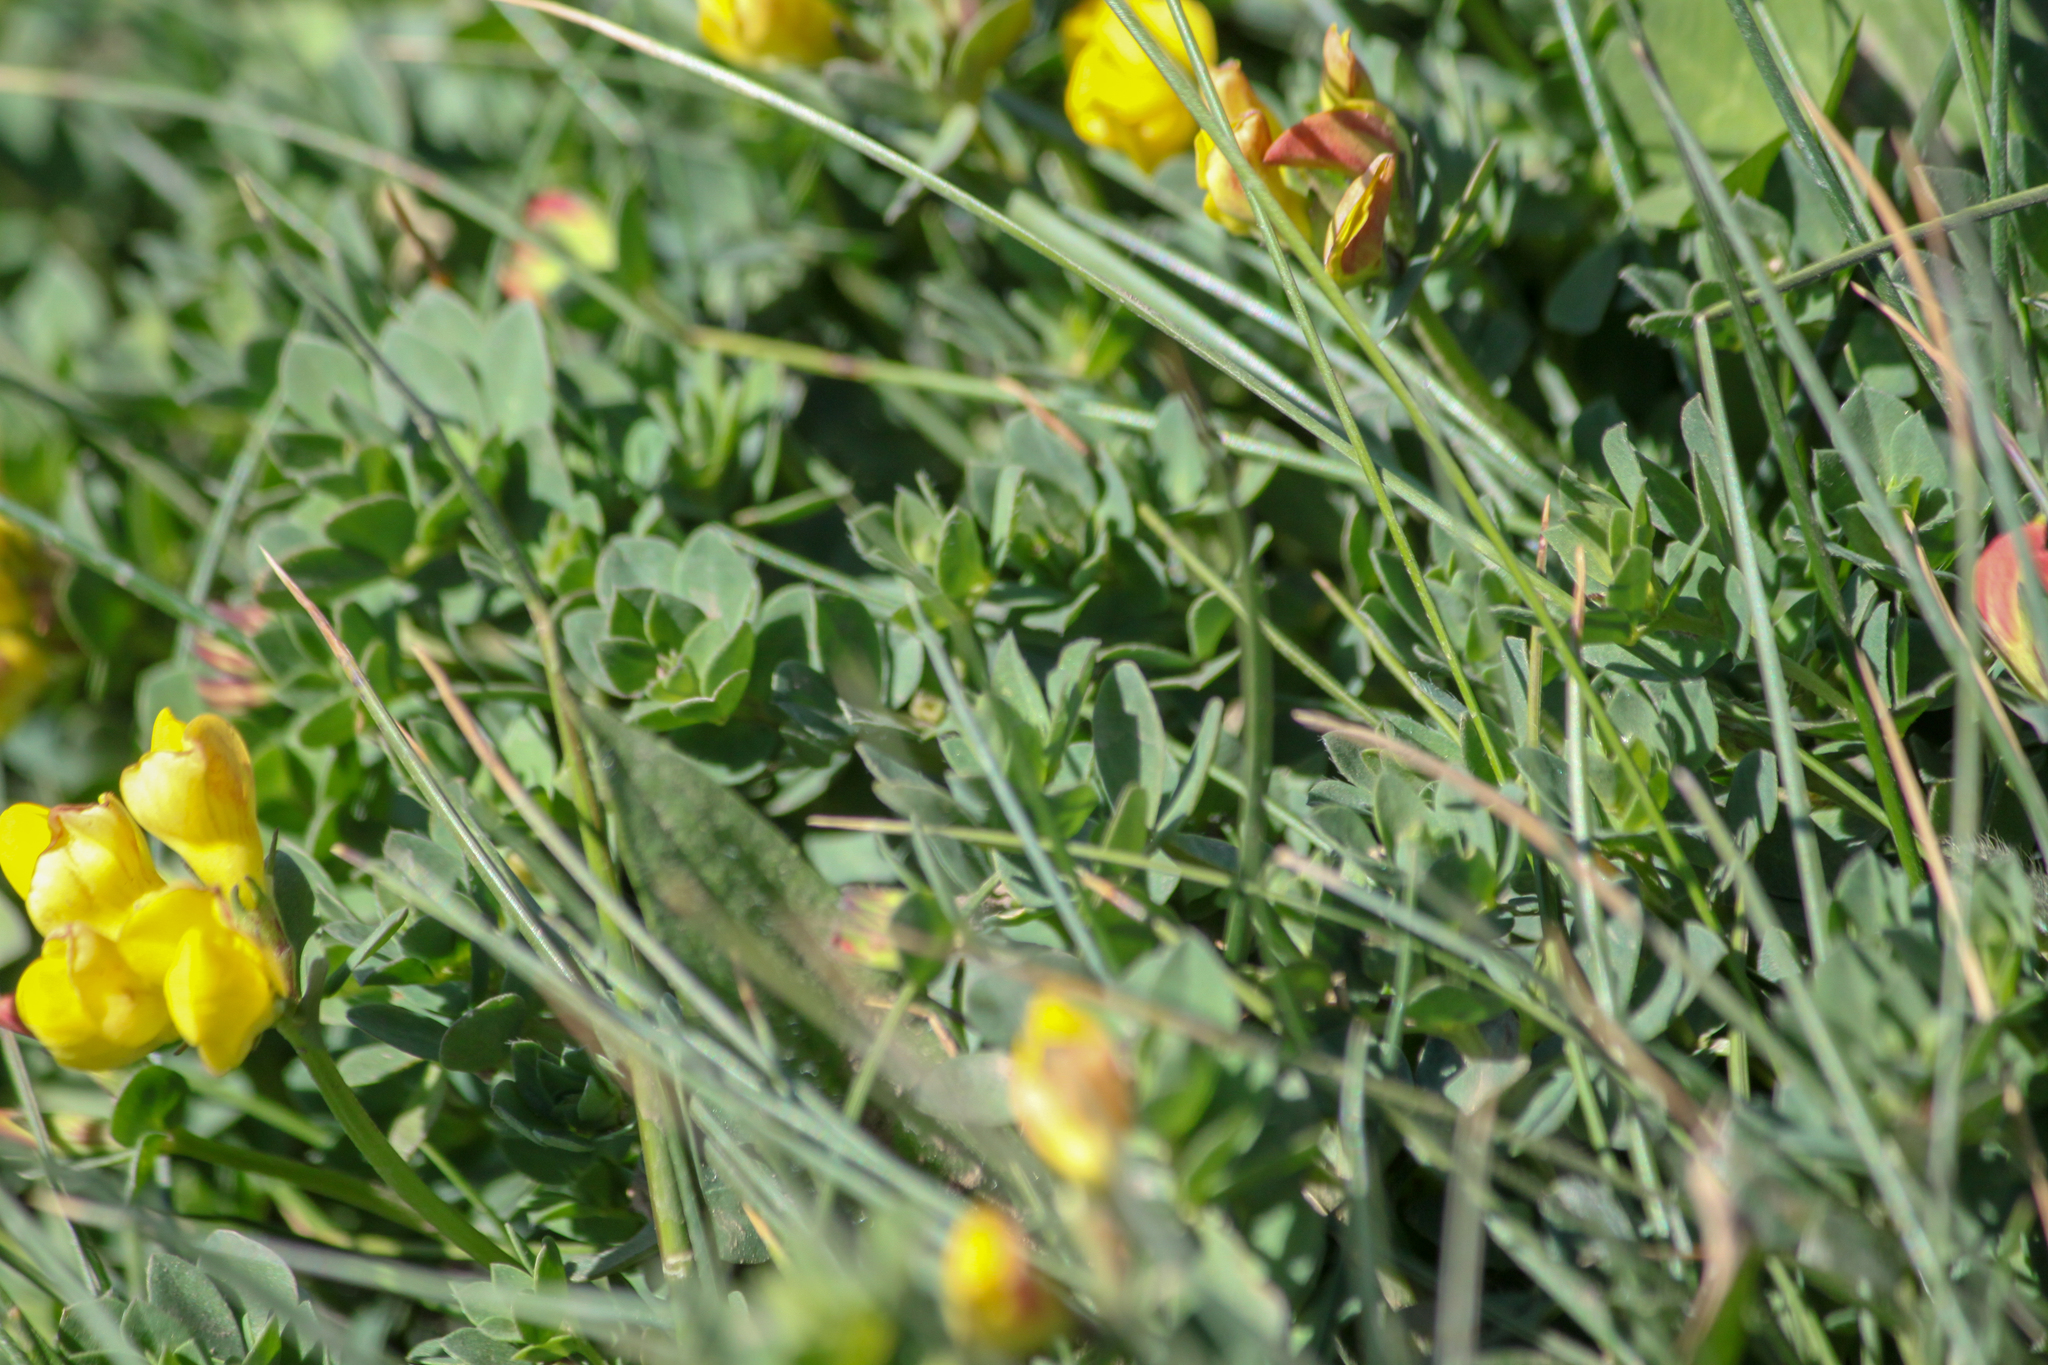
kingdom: Plantae
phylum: Tracheophyta
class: Magnoliopsida
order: Fabales
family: Fabaceae
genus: Lotus
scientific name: Lotus corniculatus
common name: Common bird's-foot-trefoil
